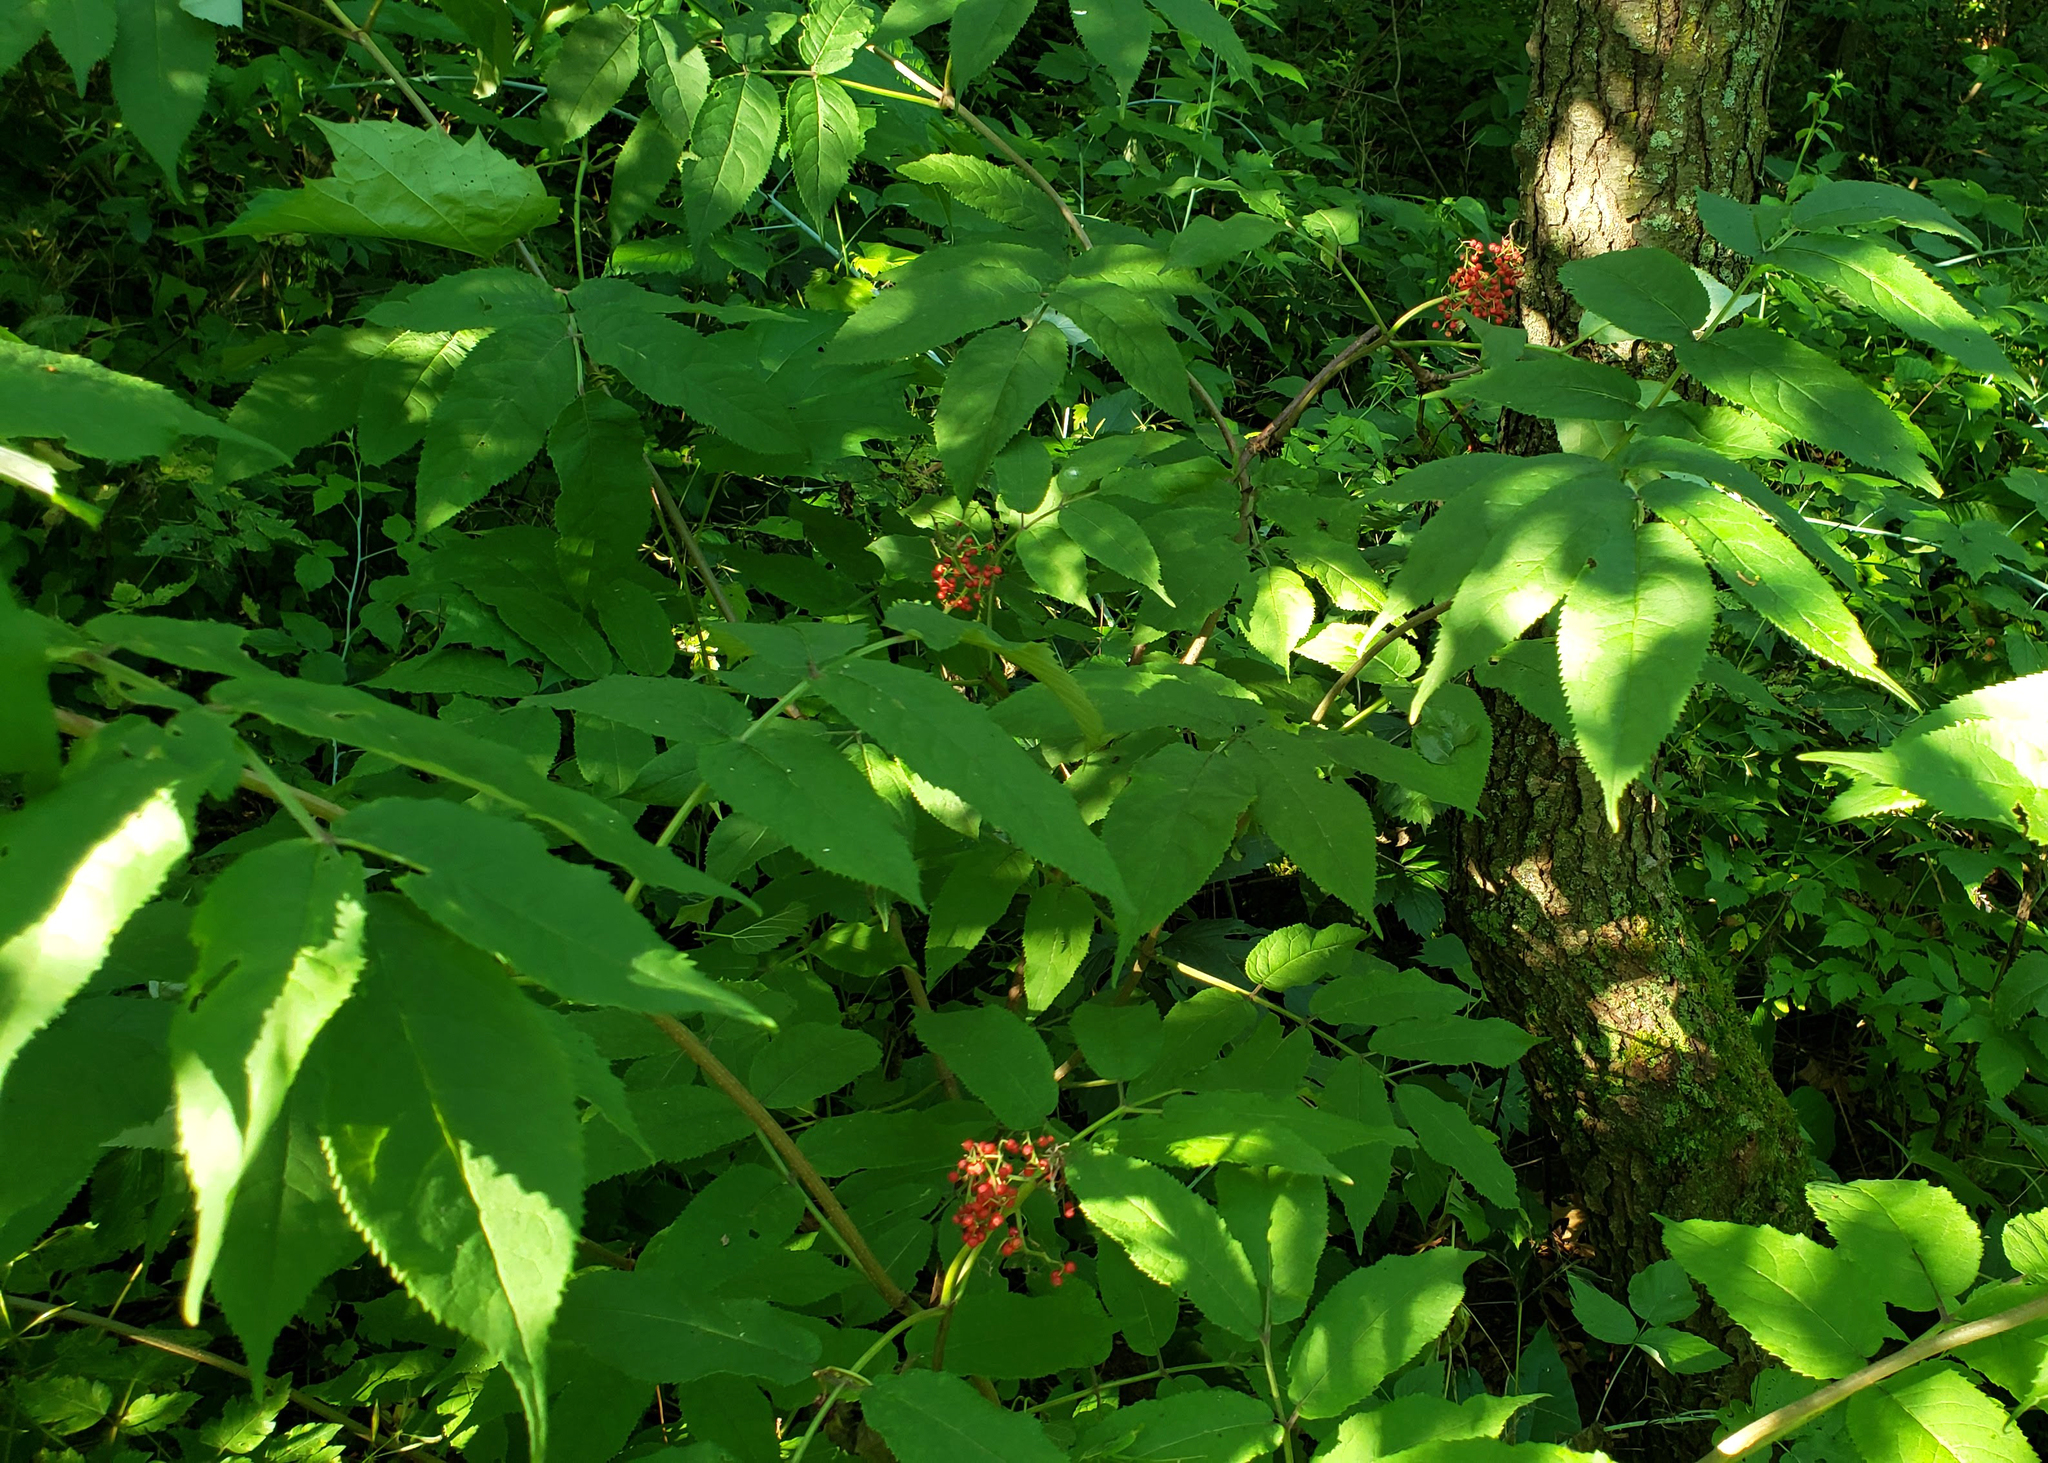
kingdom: Plantae
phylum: Tracheophyta
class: Magnoliopsida
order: Dipsacales
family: Viburnaceae
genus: Sambucus
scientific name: Sambucus racemosa
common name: Red-berried elder
